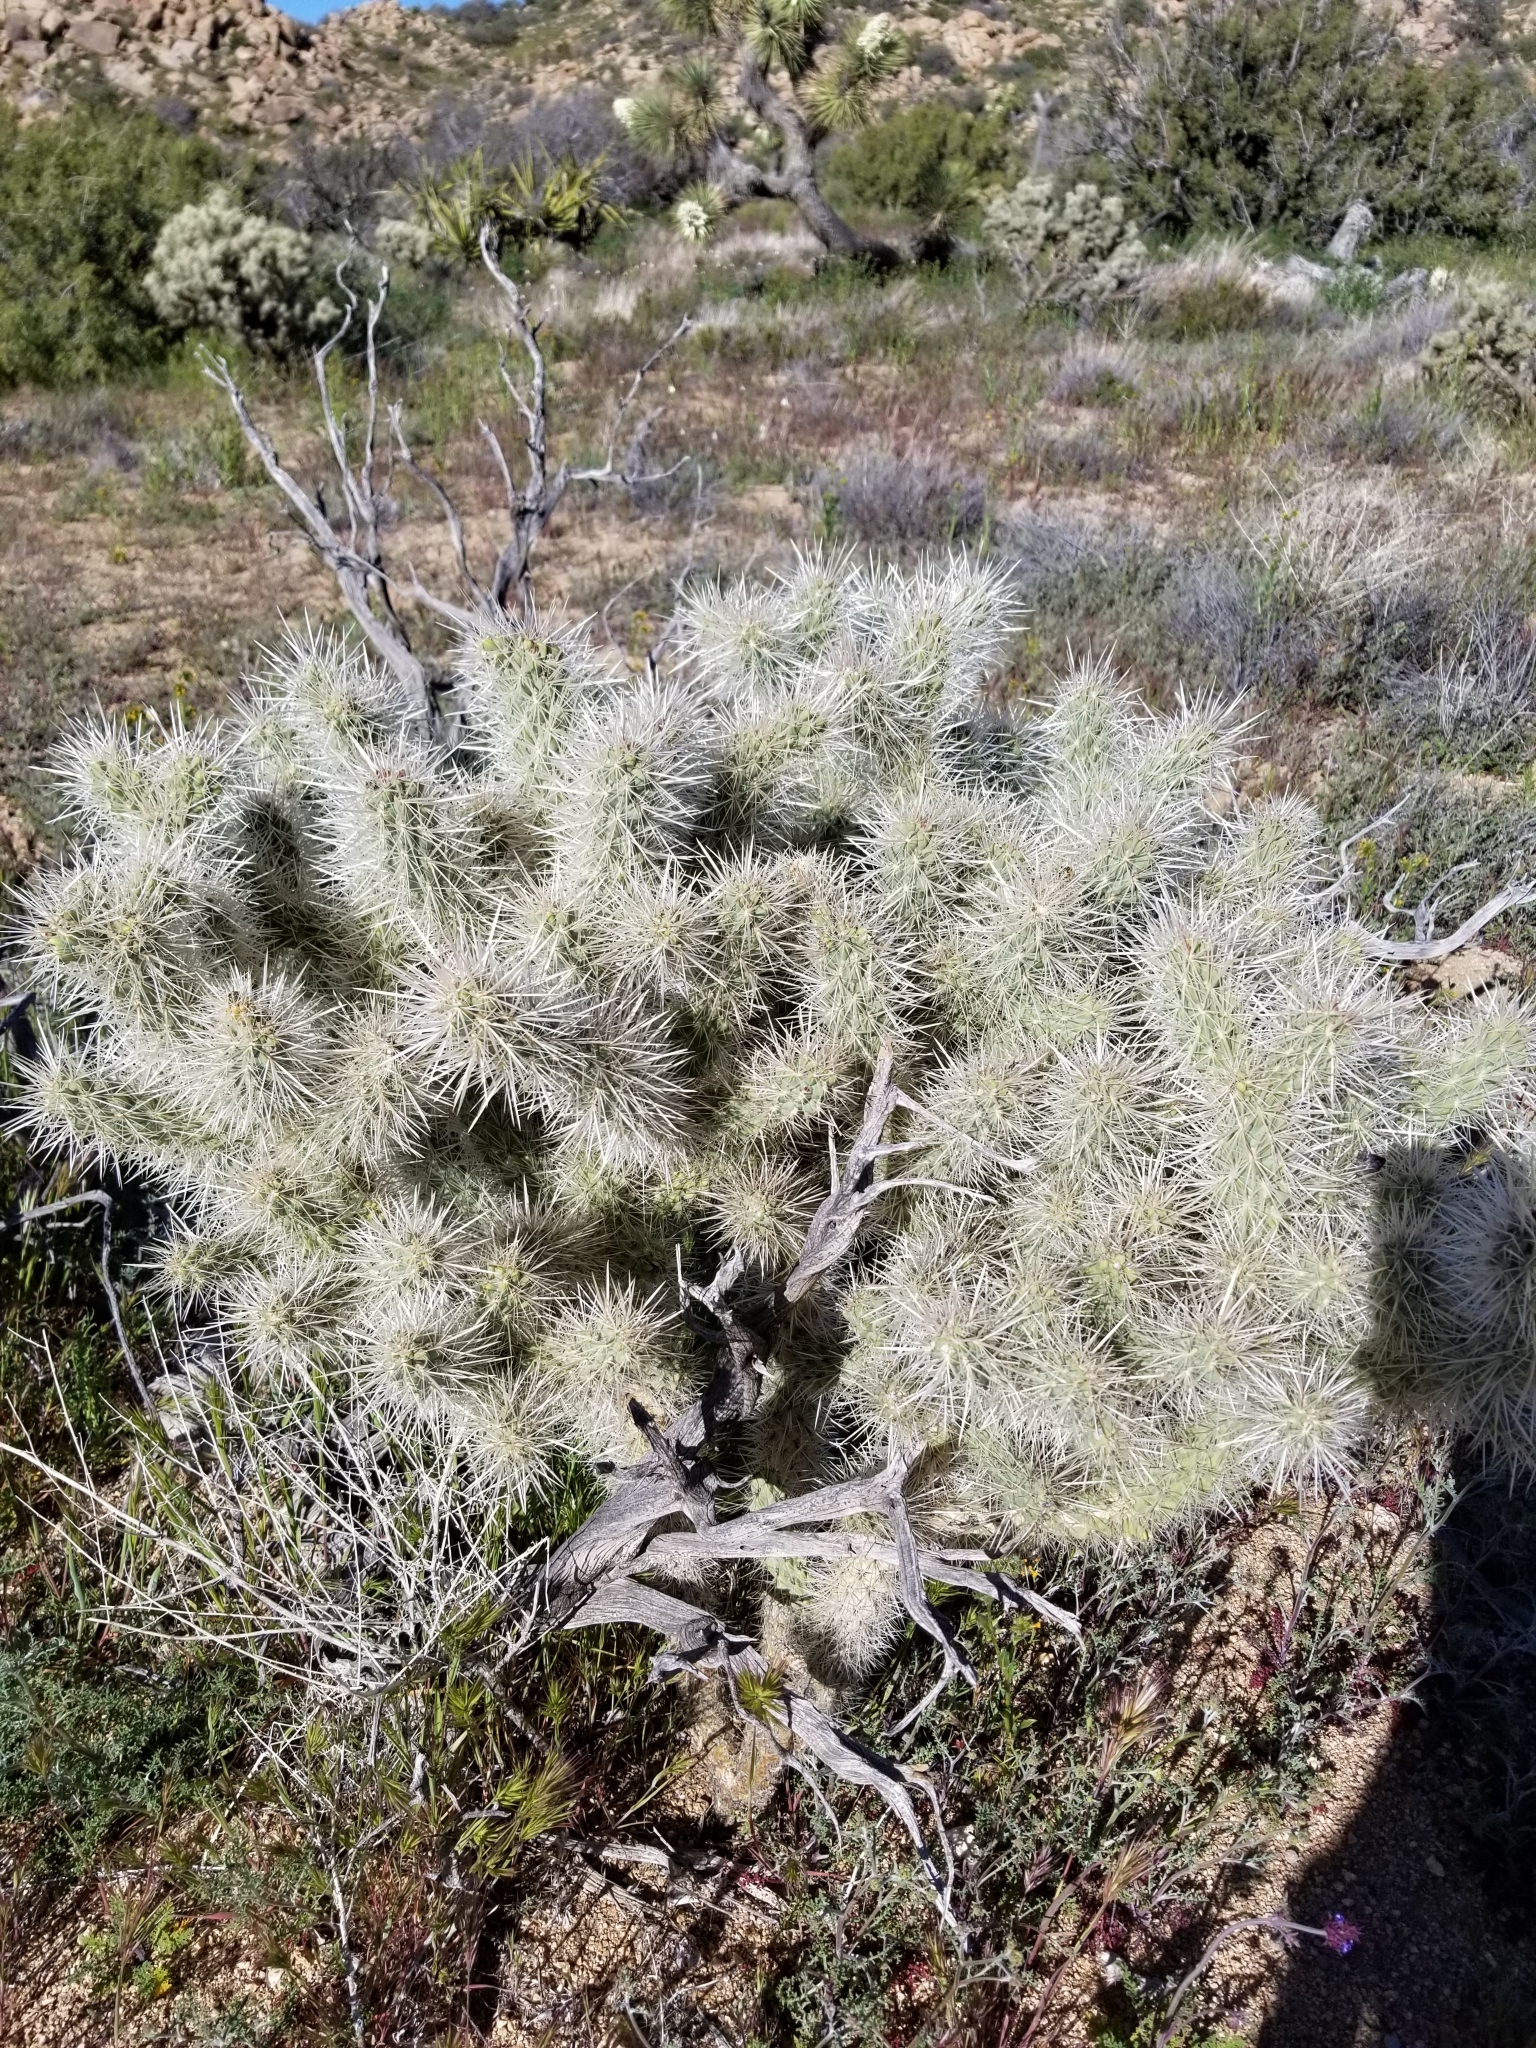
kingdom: Plantae
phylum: Tracheophyta
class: Magnoliopsida
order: Caryophyllales
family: Cactaceae
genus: Cylindropuntia
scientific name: Cylindropuntia echinocarpa
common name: Ground cholla
